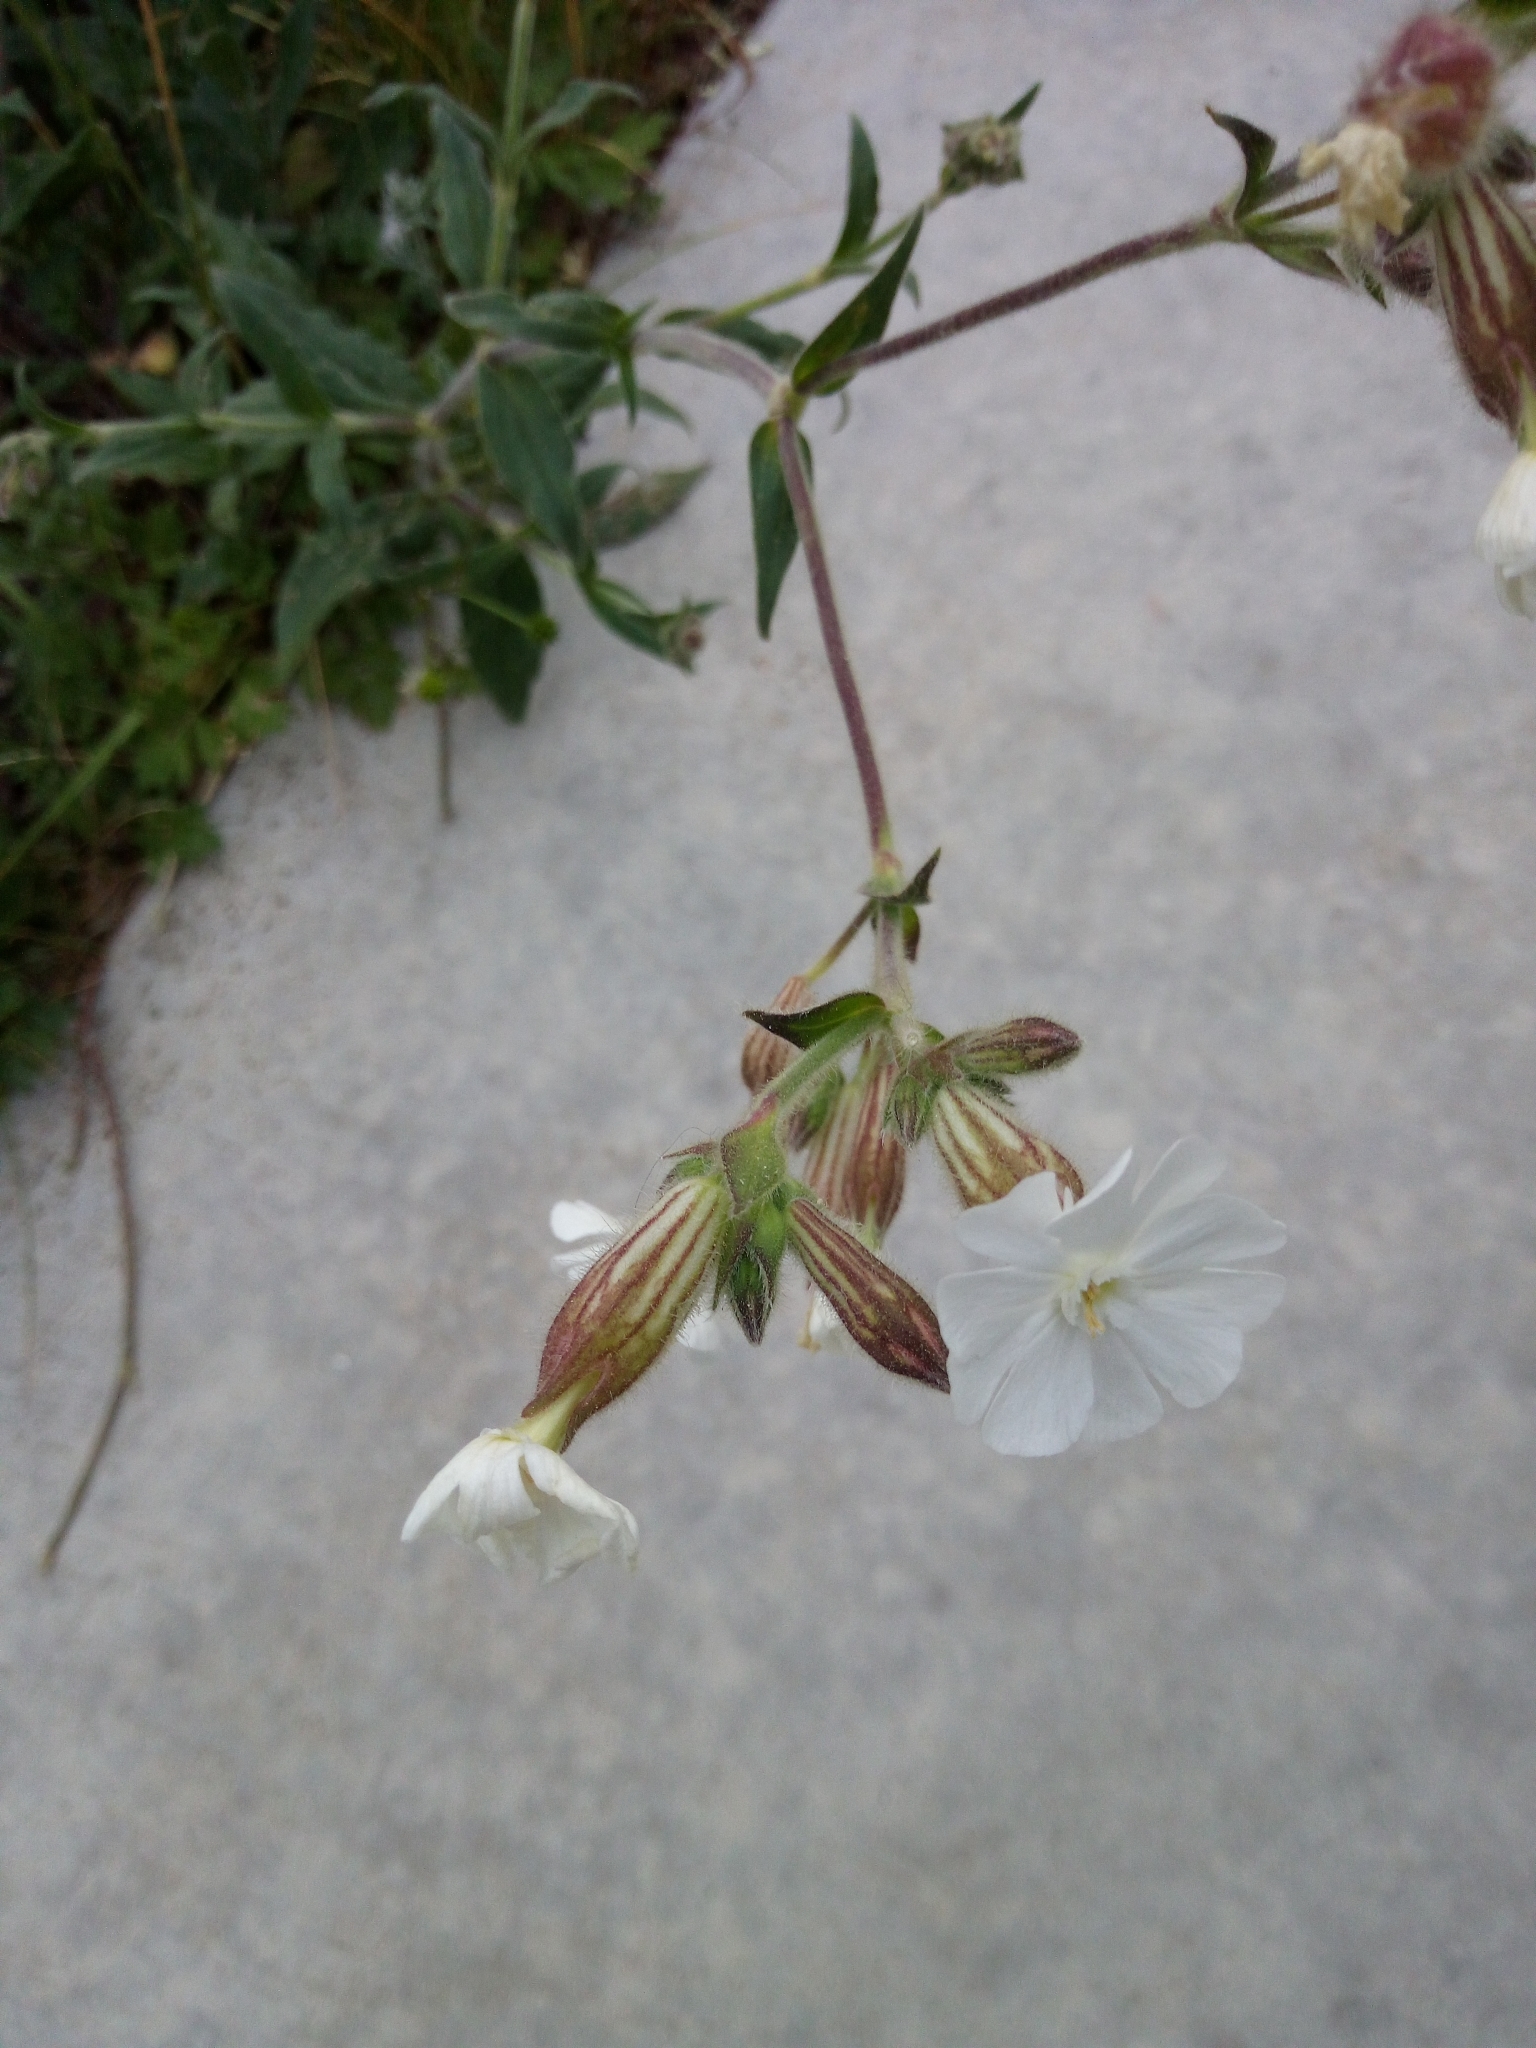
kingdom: Plantae
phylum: Tracheophyta
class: Magnoliopsida
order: Caryophyllales
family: Caryophyllaceae
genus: Silene
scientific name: Silene latifolia
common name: White campion
